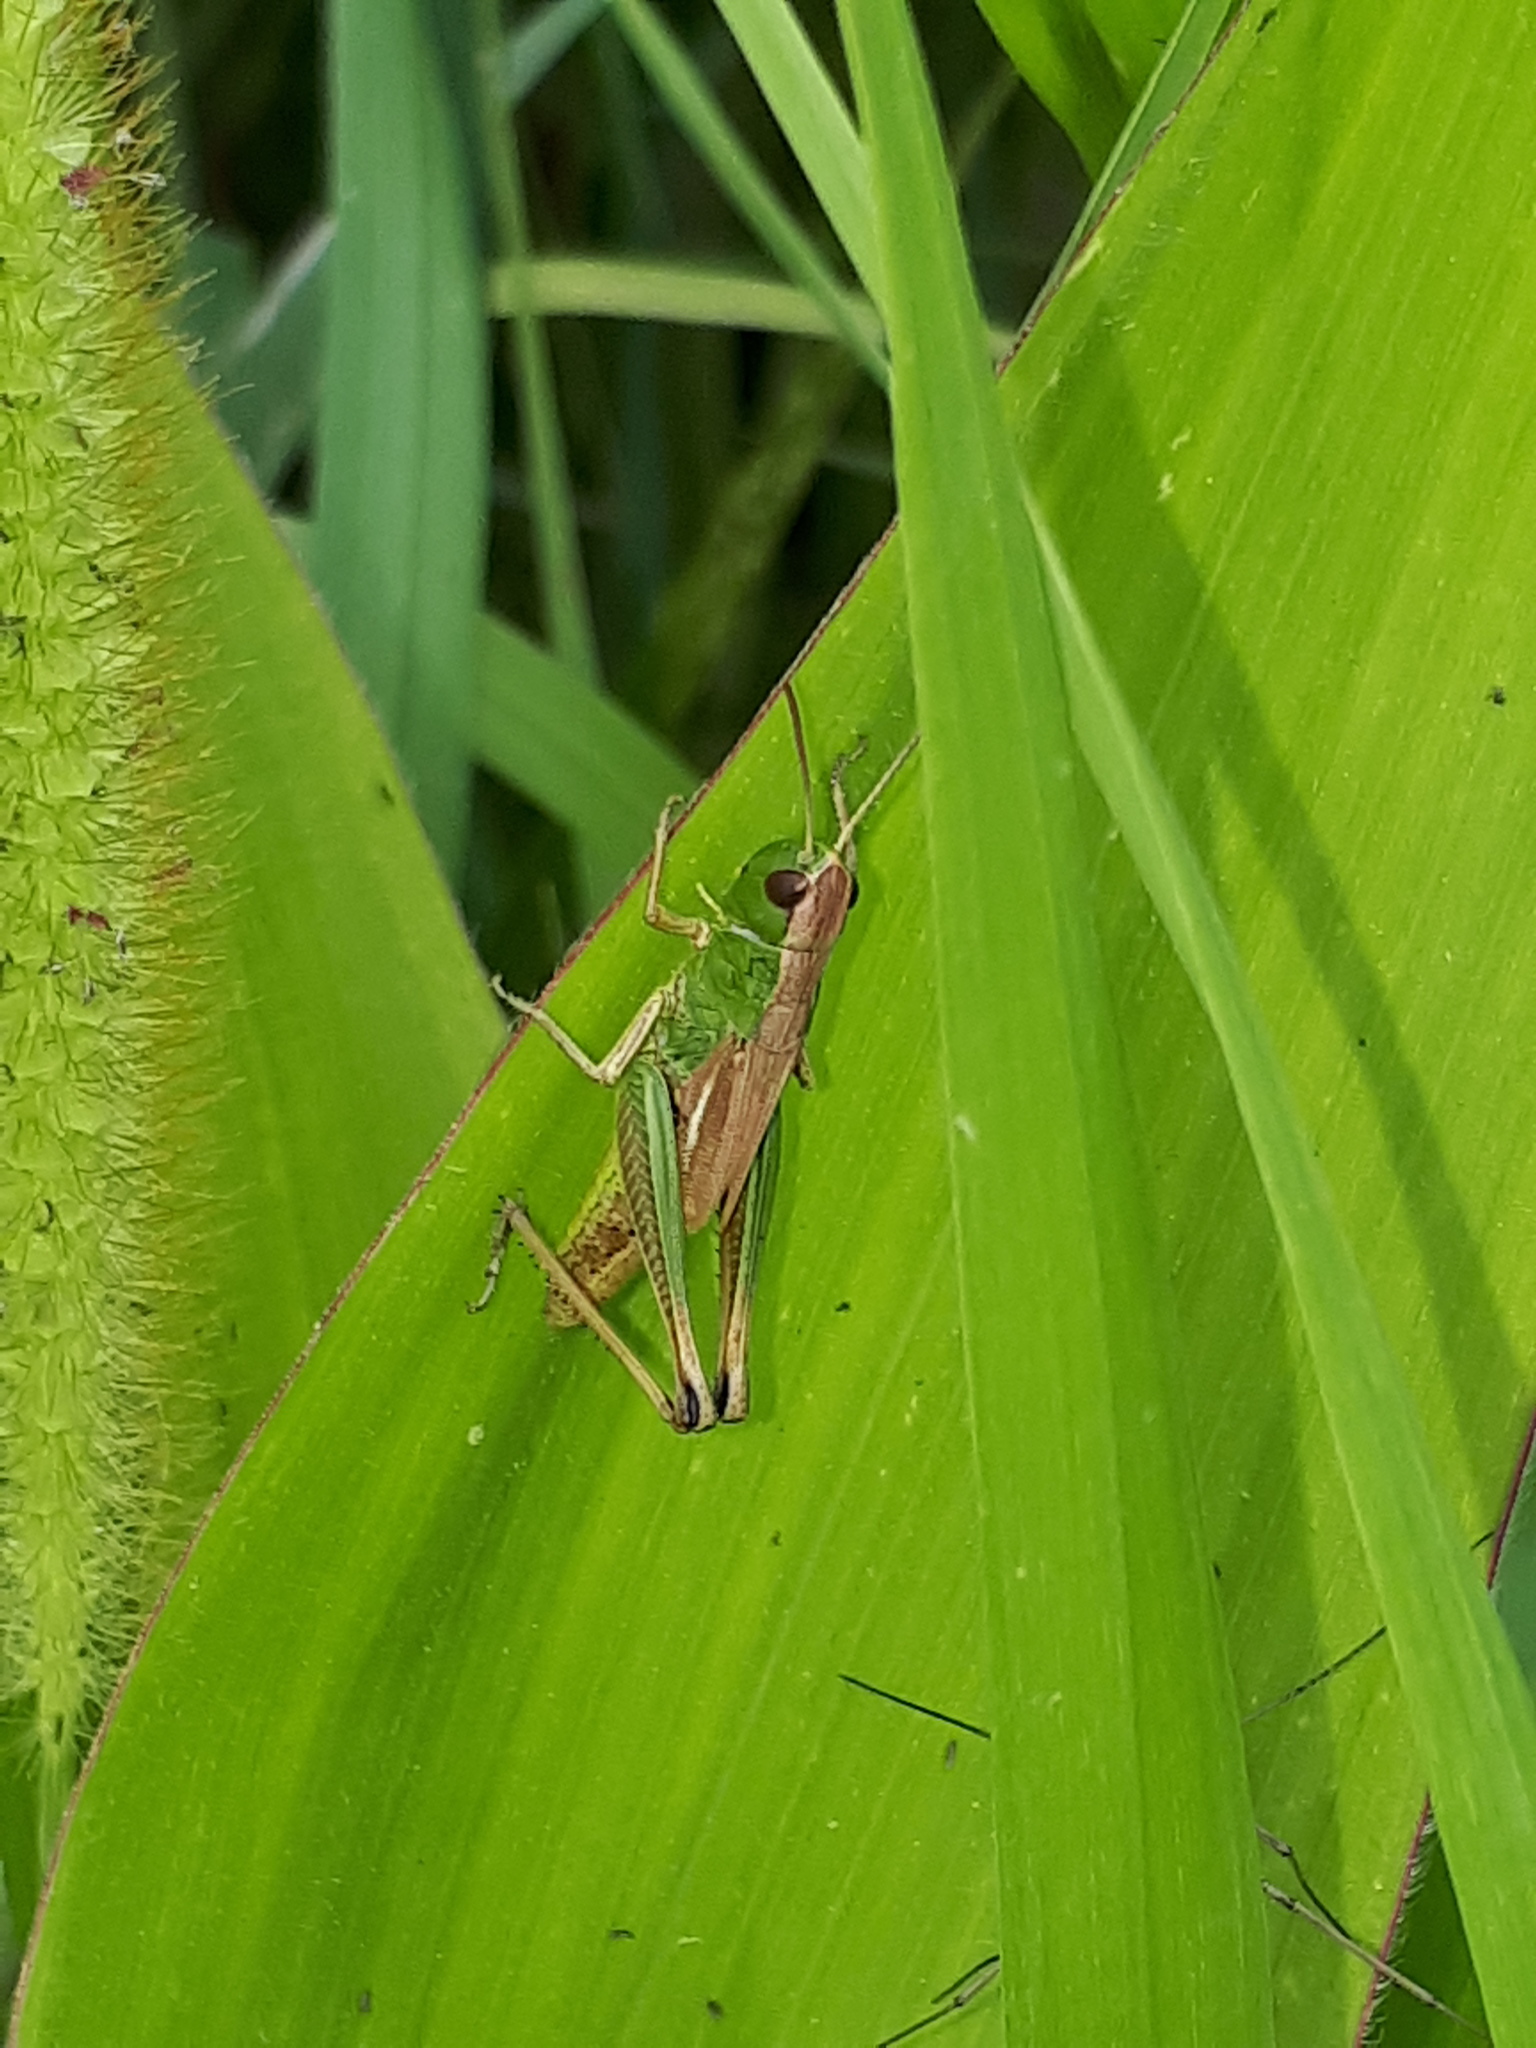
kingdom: Animalia
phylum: Arthropoda
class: Insecta
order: Orthoptera
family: Acrididae
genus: Pseudochorthippus
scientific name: Pseudochorthippus parallelus
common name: Meadow grasshopper
